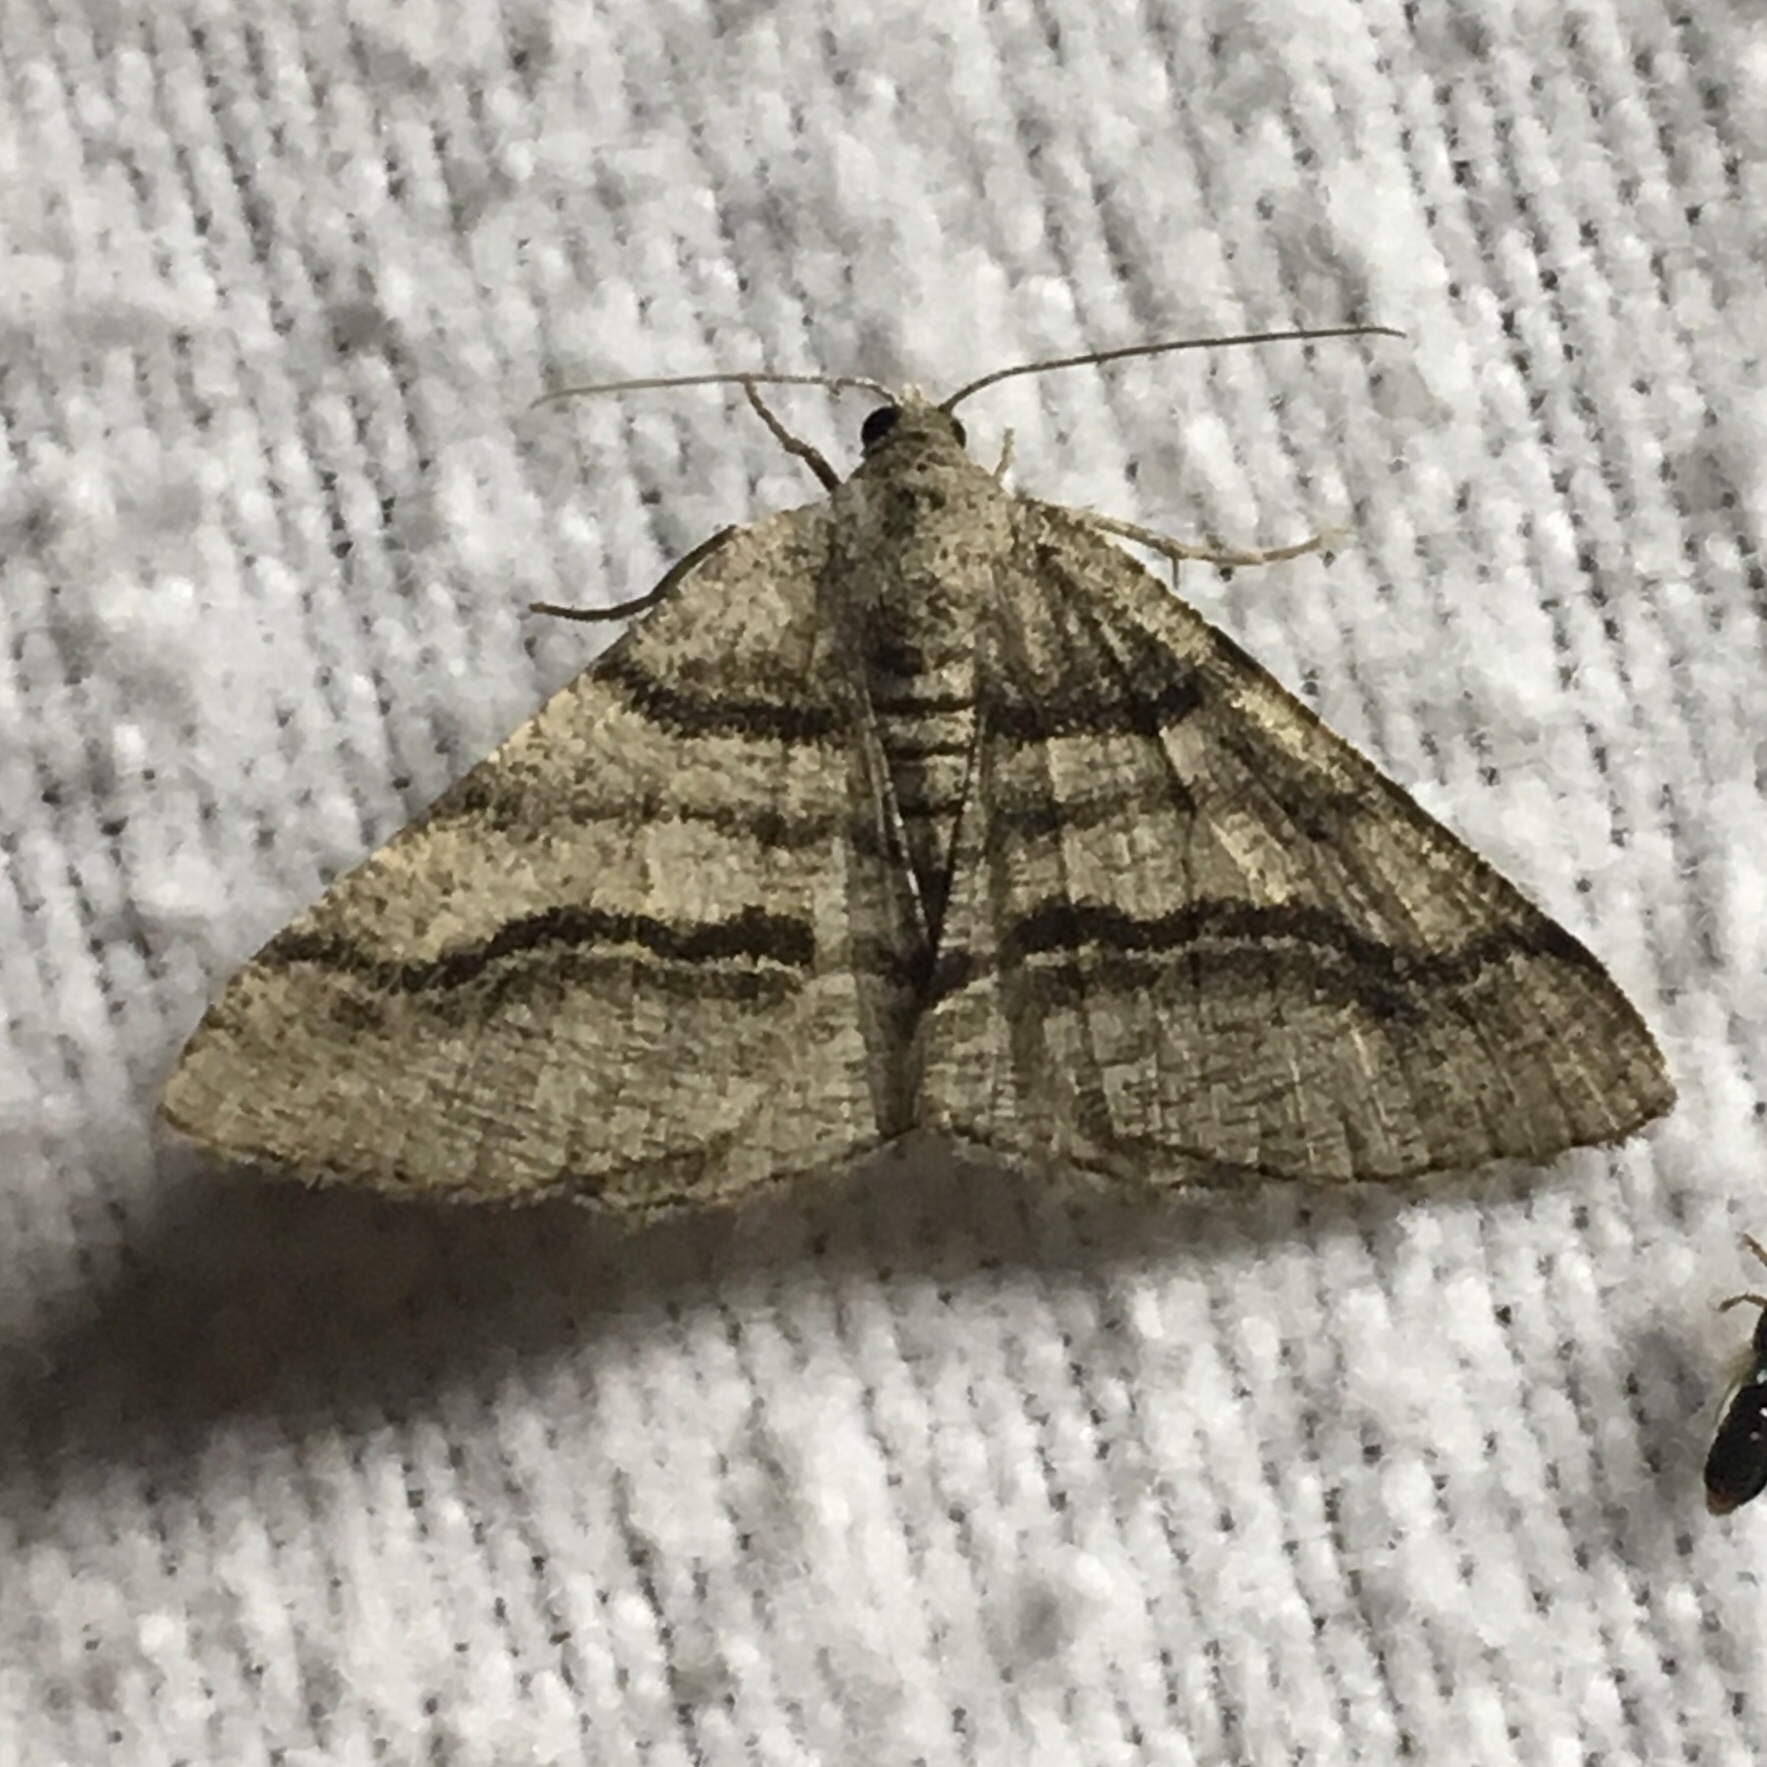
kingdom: Animalia
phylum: Arthropoda
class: Insecta
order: Lepidoptera
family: Geometridae
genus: Digrammia
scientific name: Digrammia continuata
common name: Curve-lined angle
